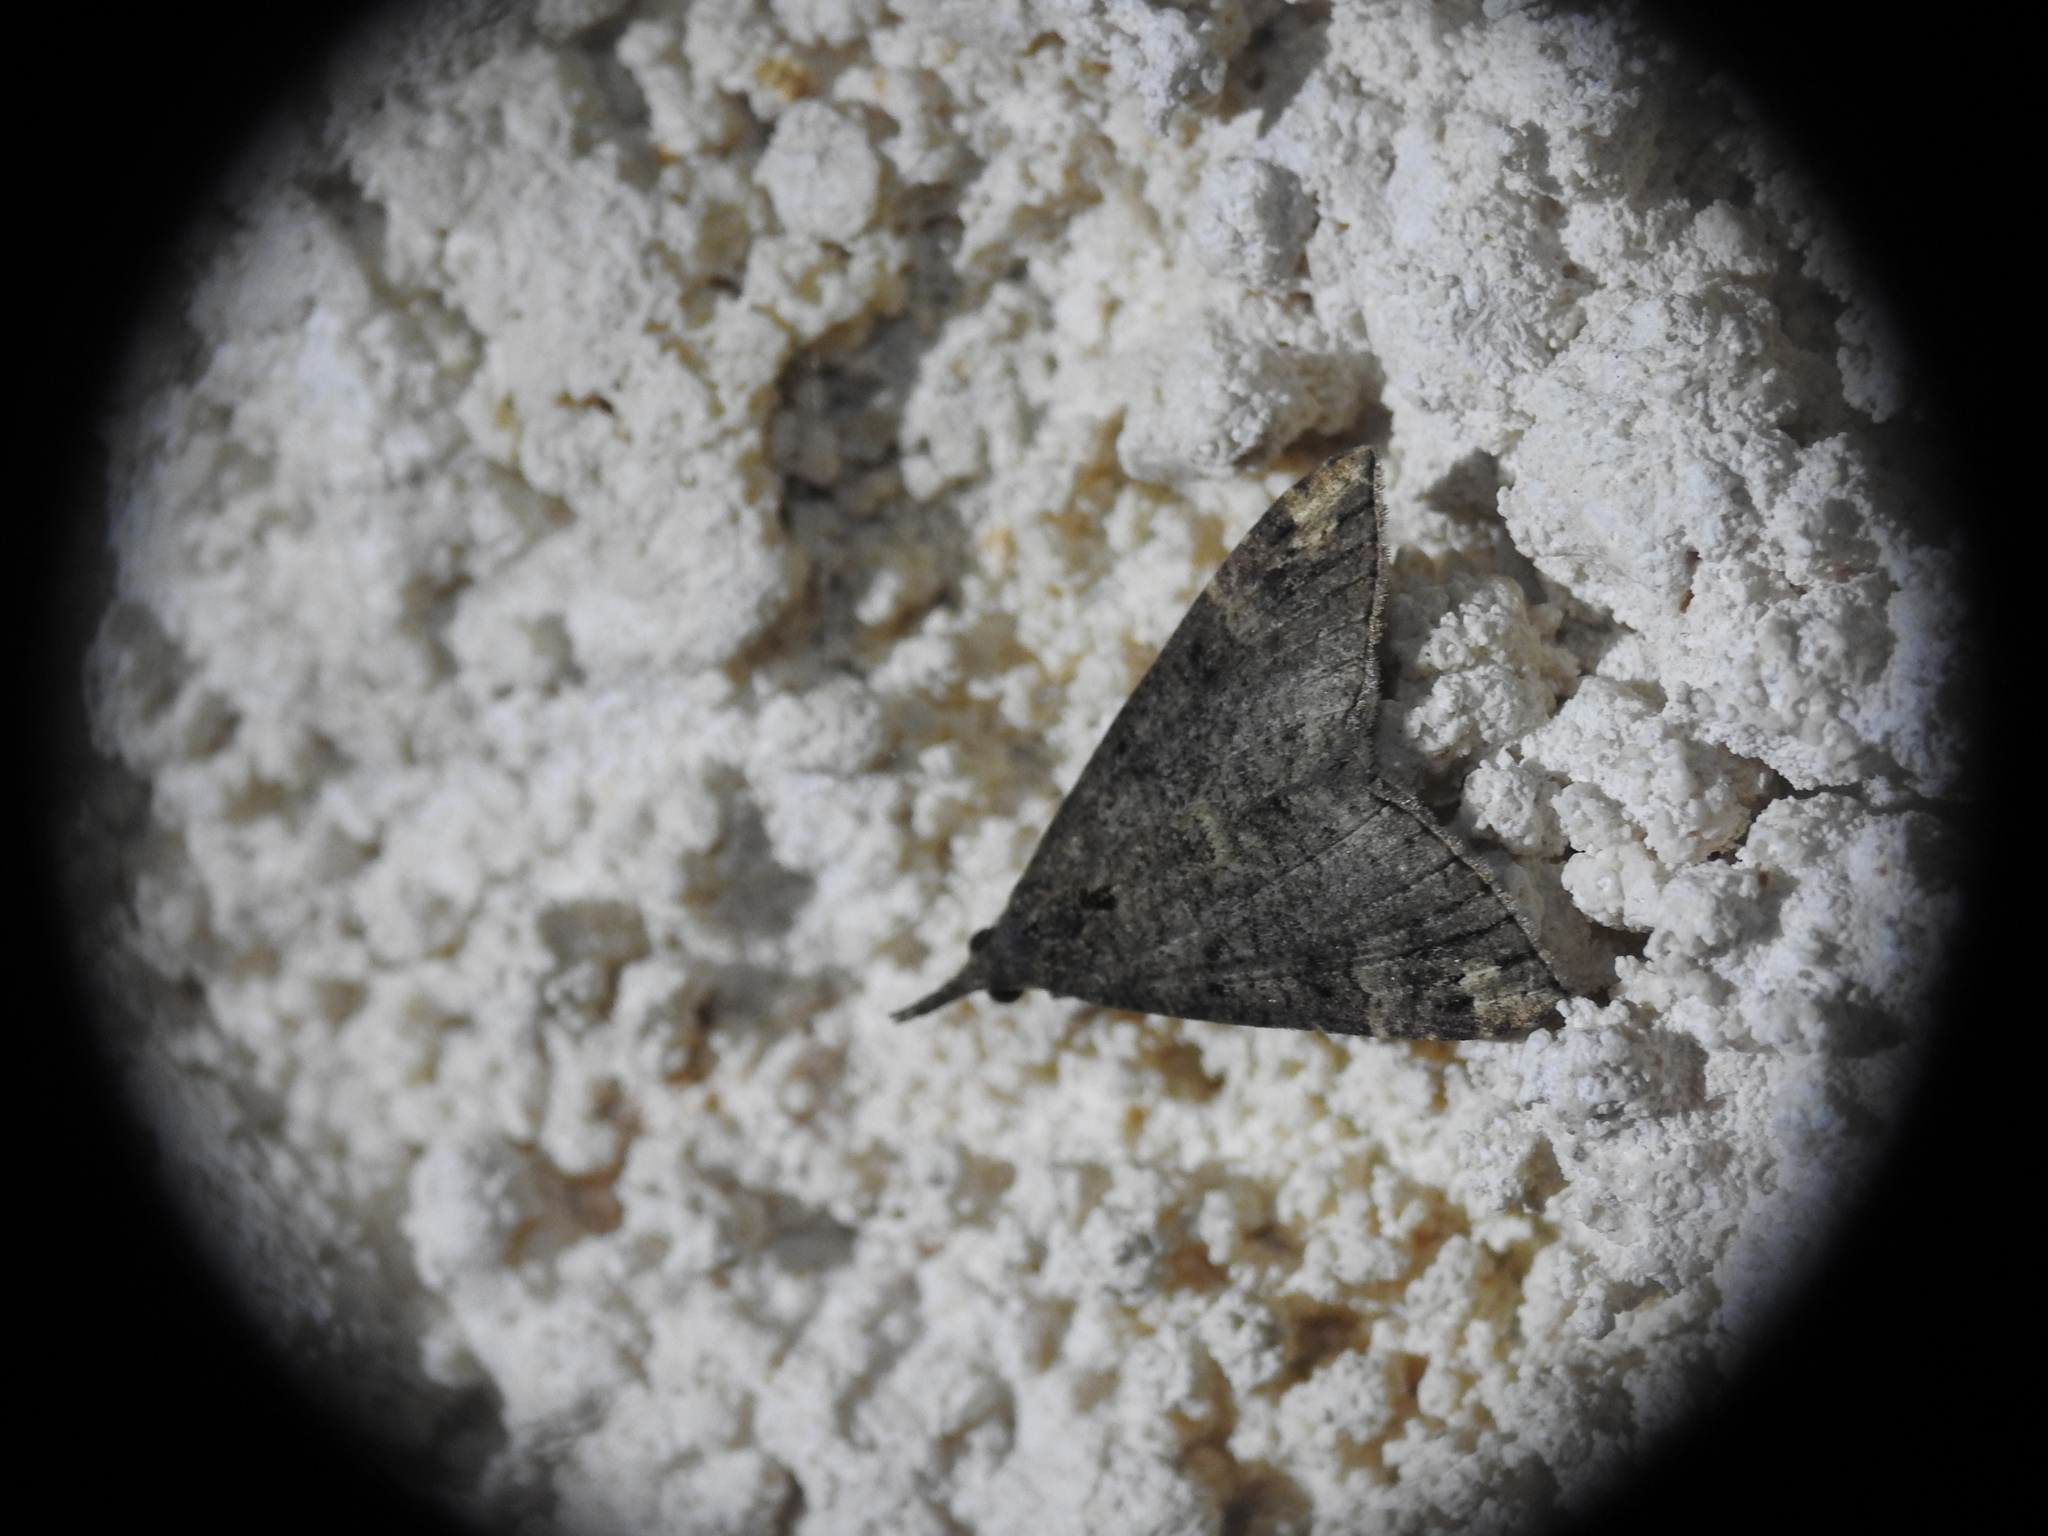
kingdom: Animalia
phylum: Arthropoda
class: Insecta
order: Lepidoptera
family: Erebidae
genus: Hypena
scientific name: Hypena obsitalis
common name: Bloxworth snout
